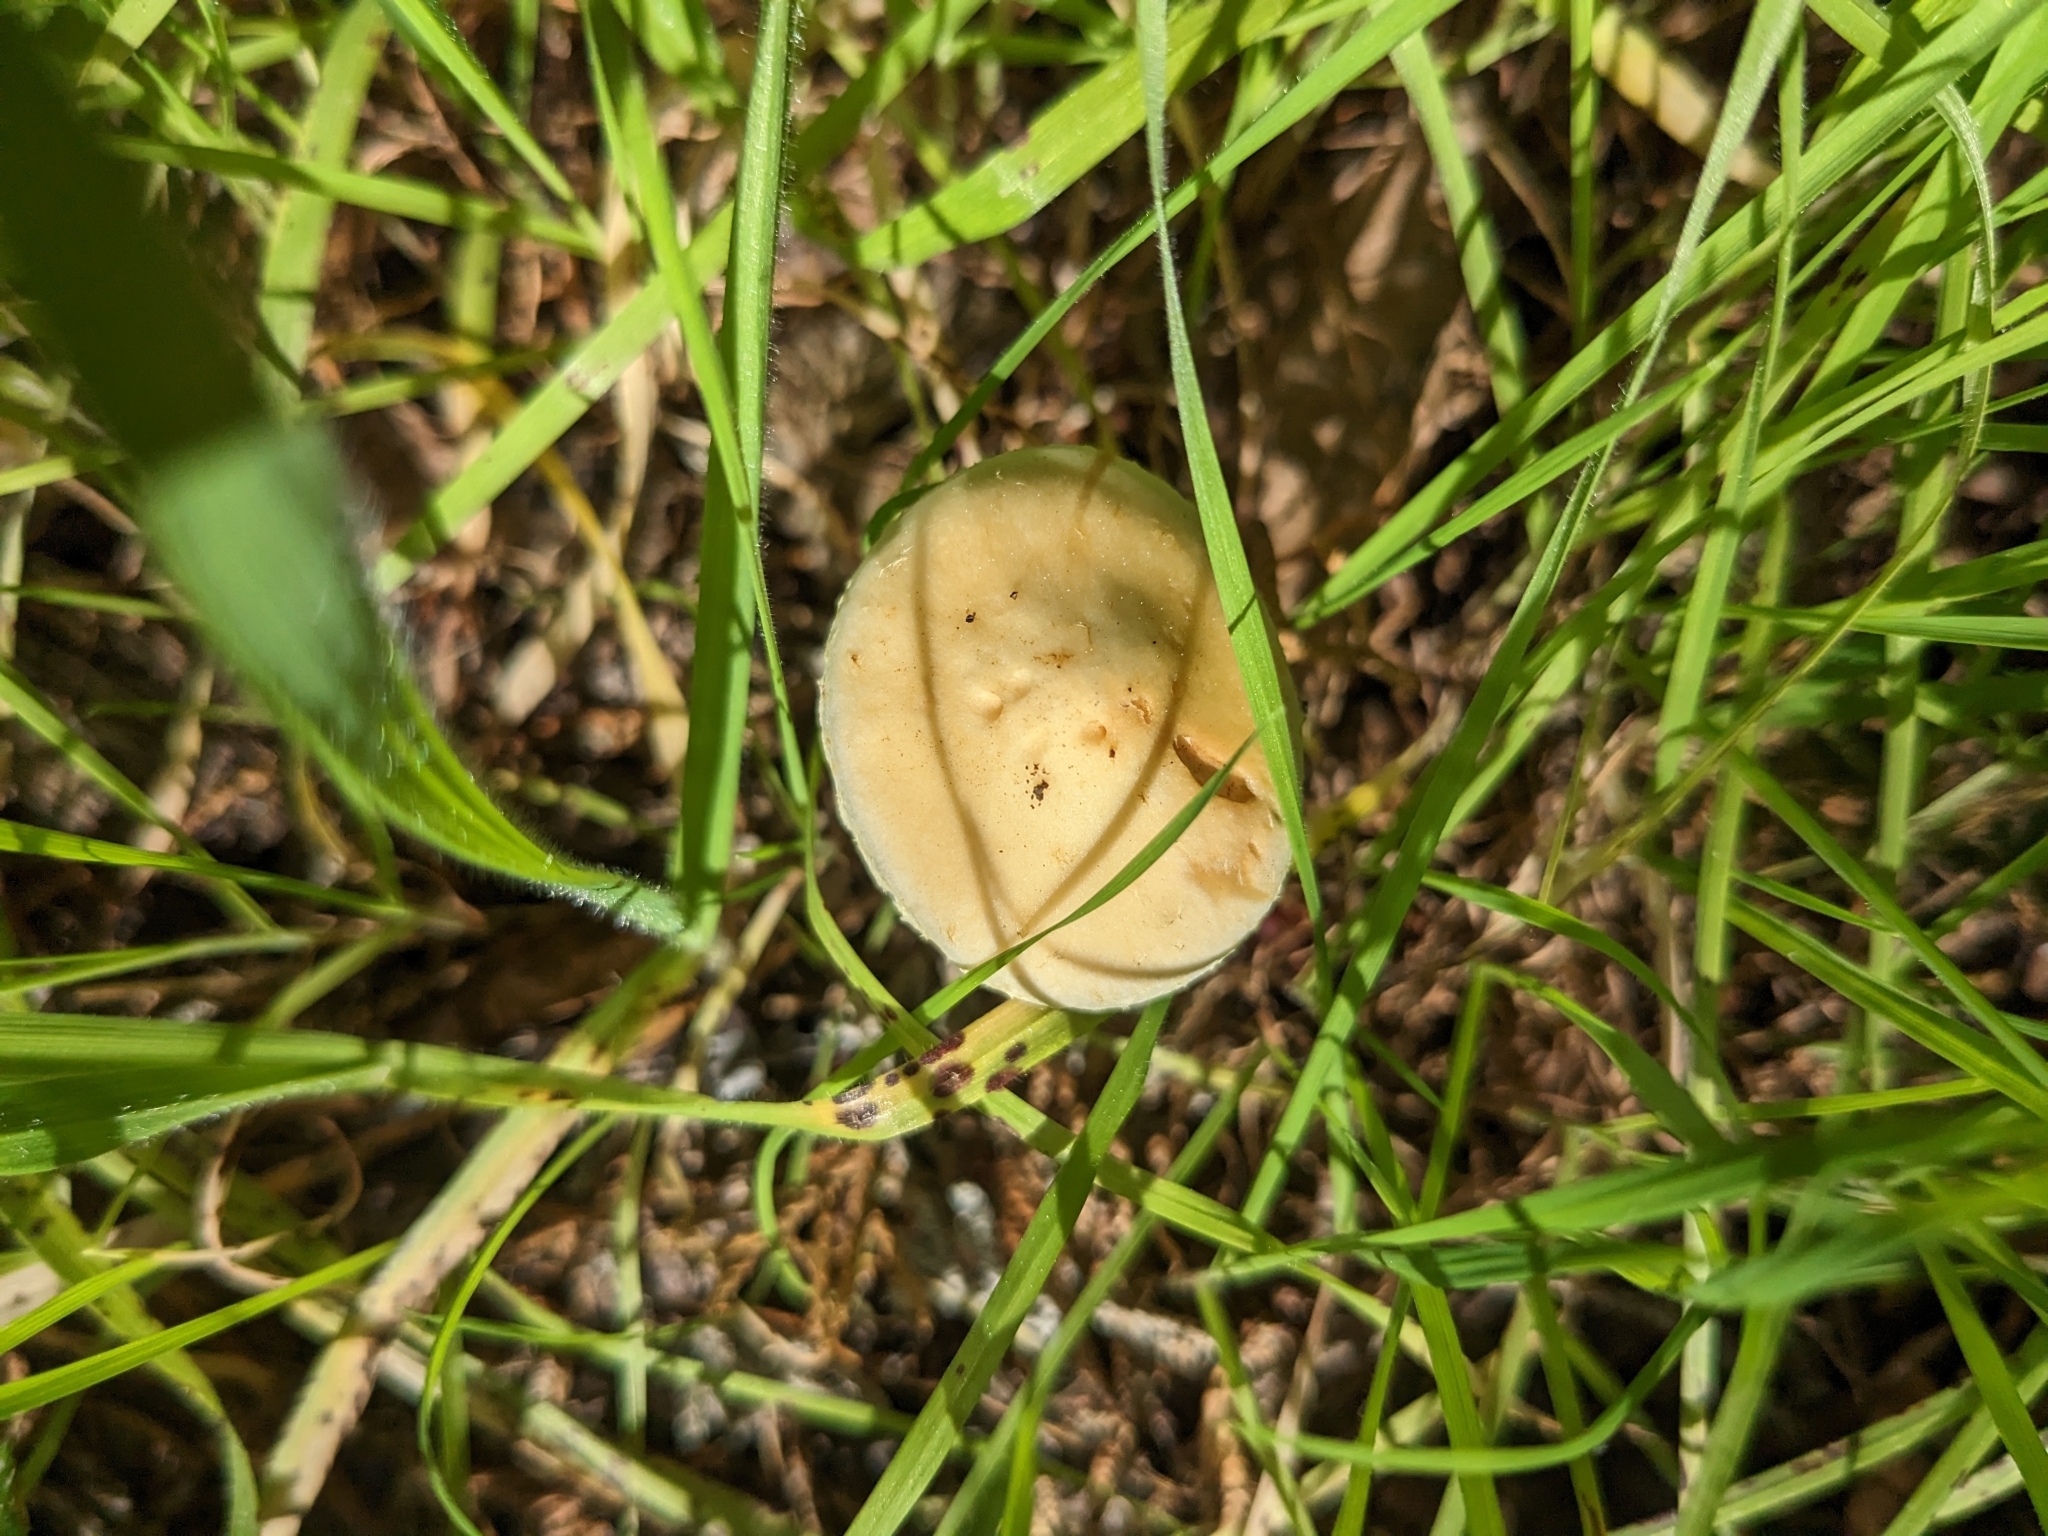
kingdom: Fungi
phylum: Basidiomycota
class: Agaricomycetes
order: Agaricales
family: Strophariaceae
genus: Leratiomyces
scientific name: Leratiomyces percevalii
